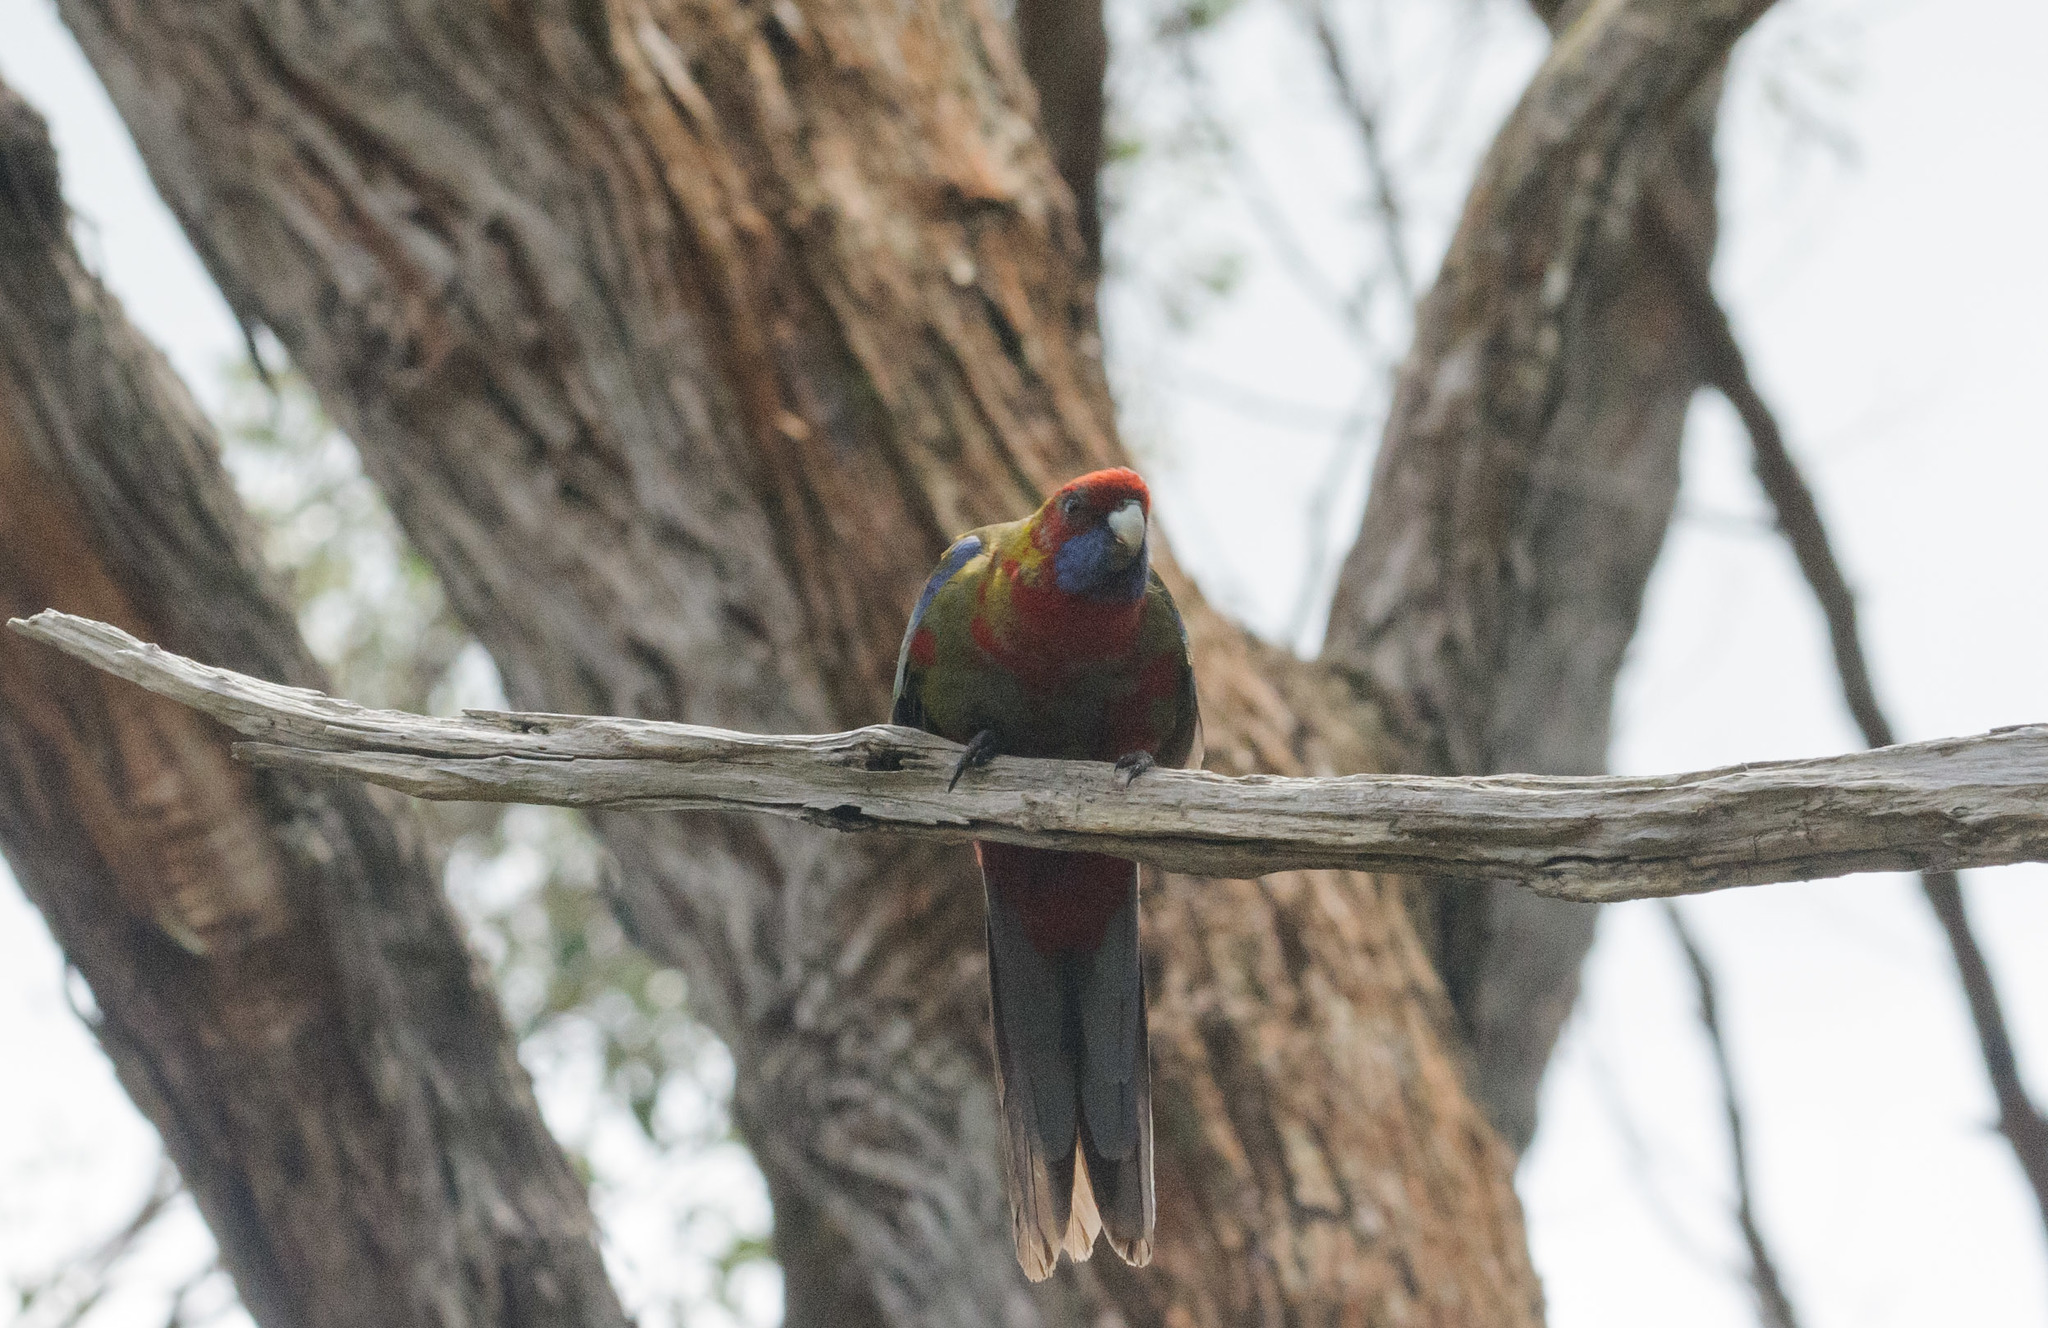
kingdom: Animalia
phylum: Chordata
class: Aves
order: Psittaciformes
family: Psittacidae
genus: Platycercus
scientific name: Platycercus elegans
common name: Crimson rosella
